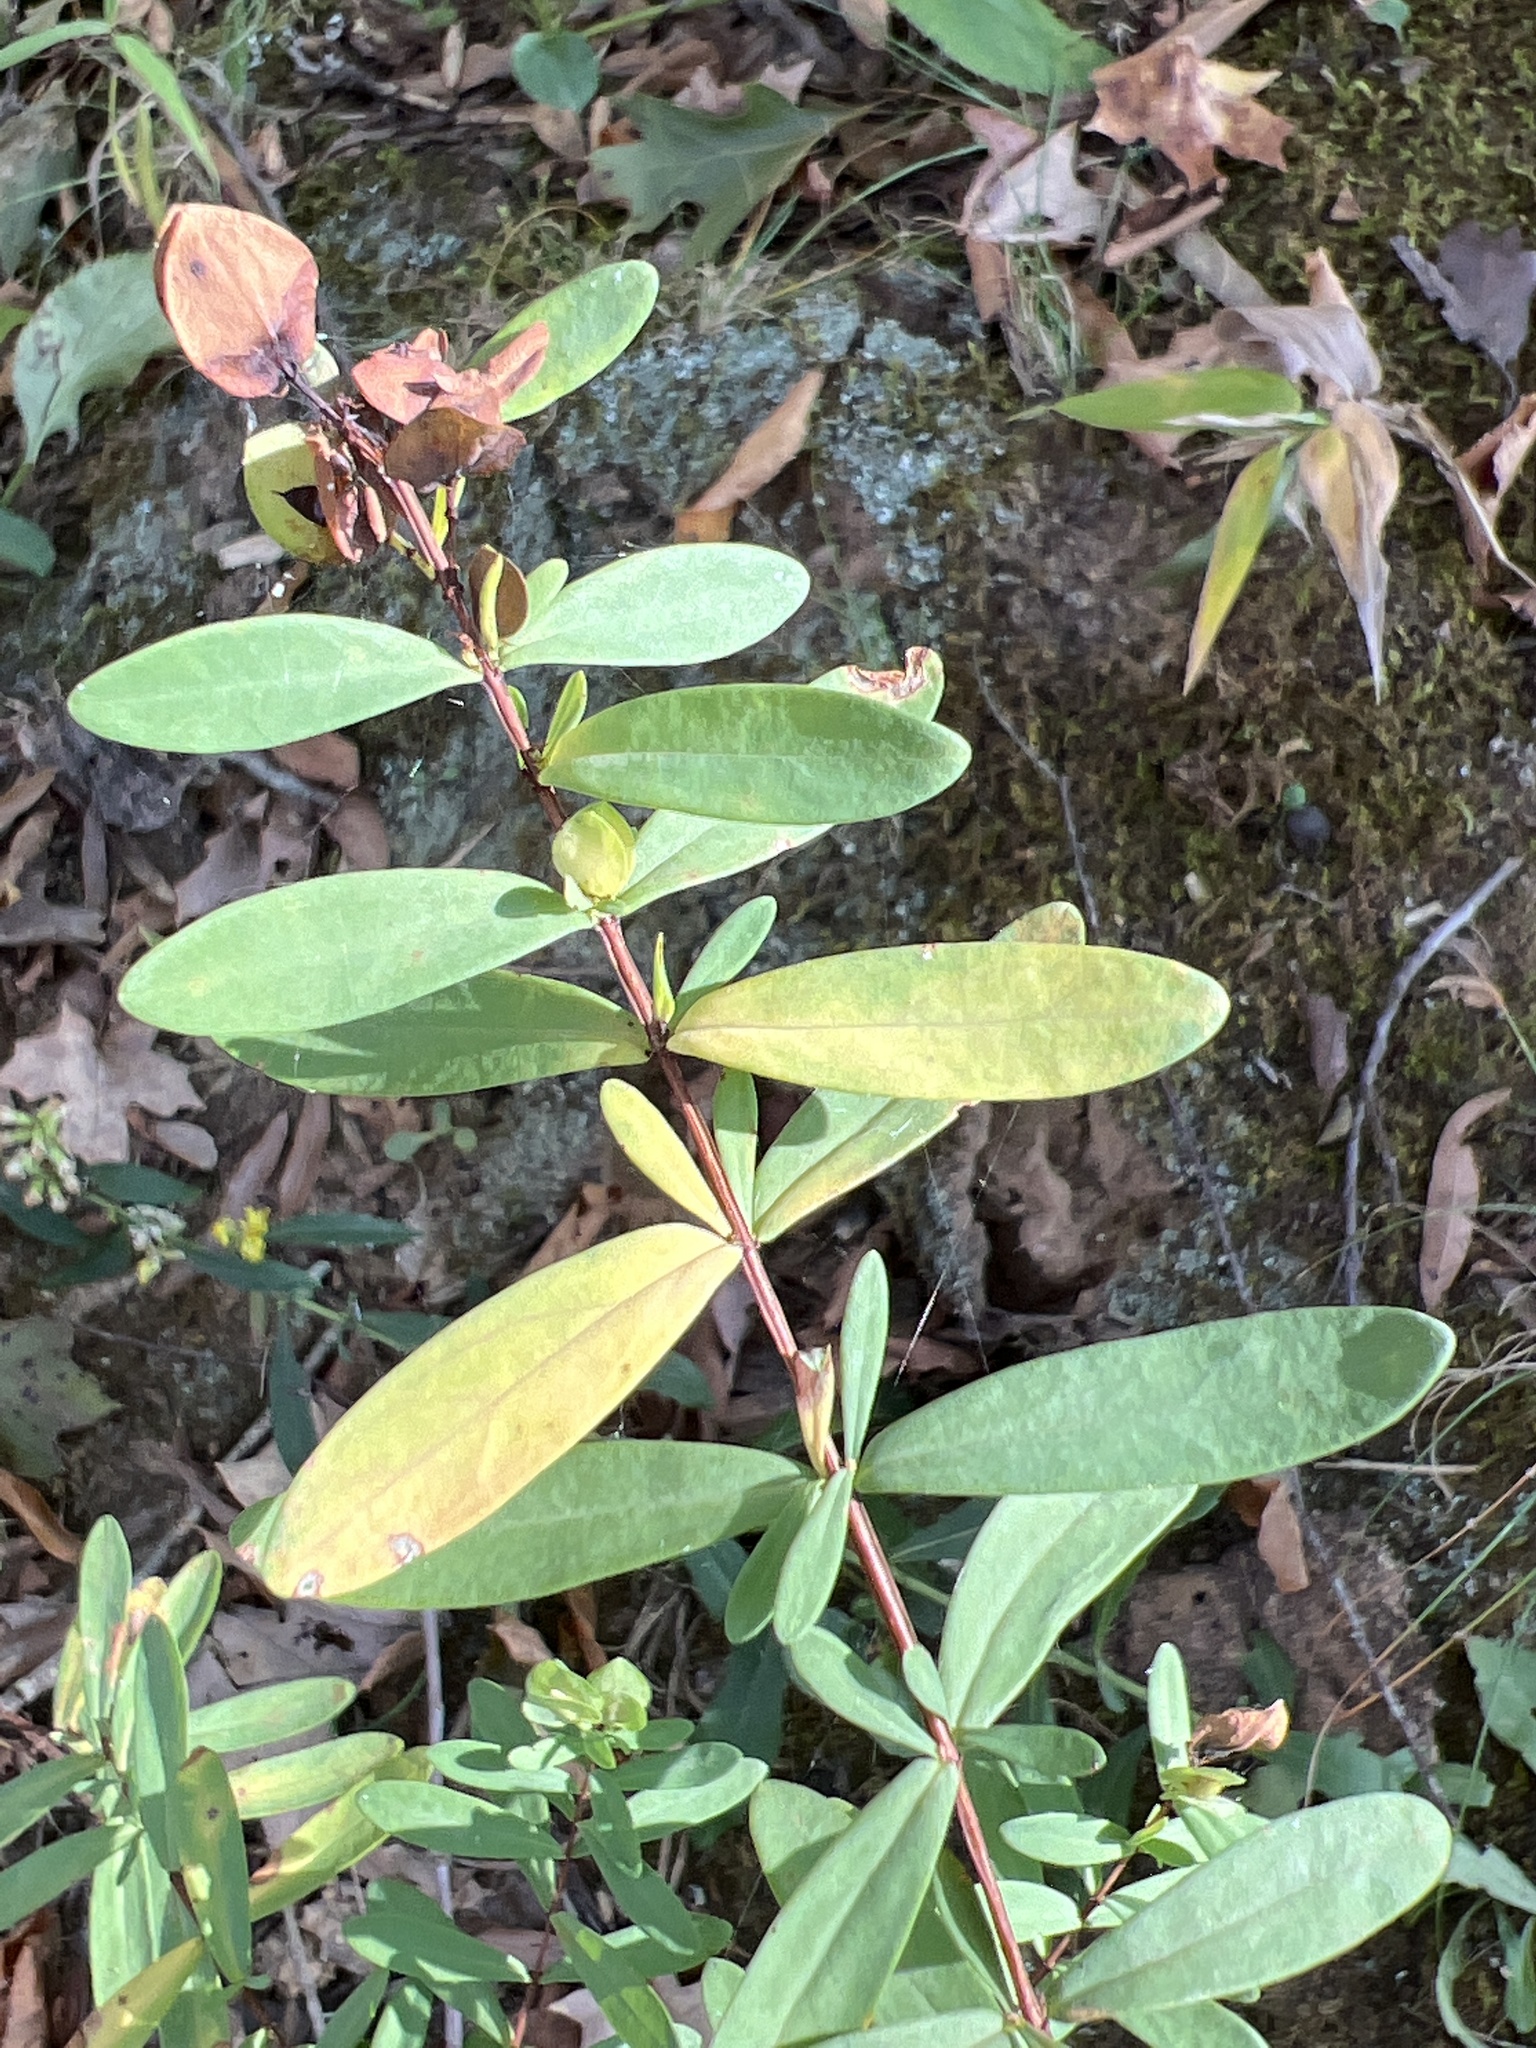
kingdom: Plantae
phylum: Tracheophyta
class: Magnoliopsida
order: Malpighiales
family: Hypericaceae
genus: Hypericum
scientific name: Hypericum hypericoides
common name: St. andrew's cross
